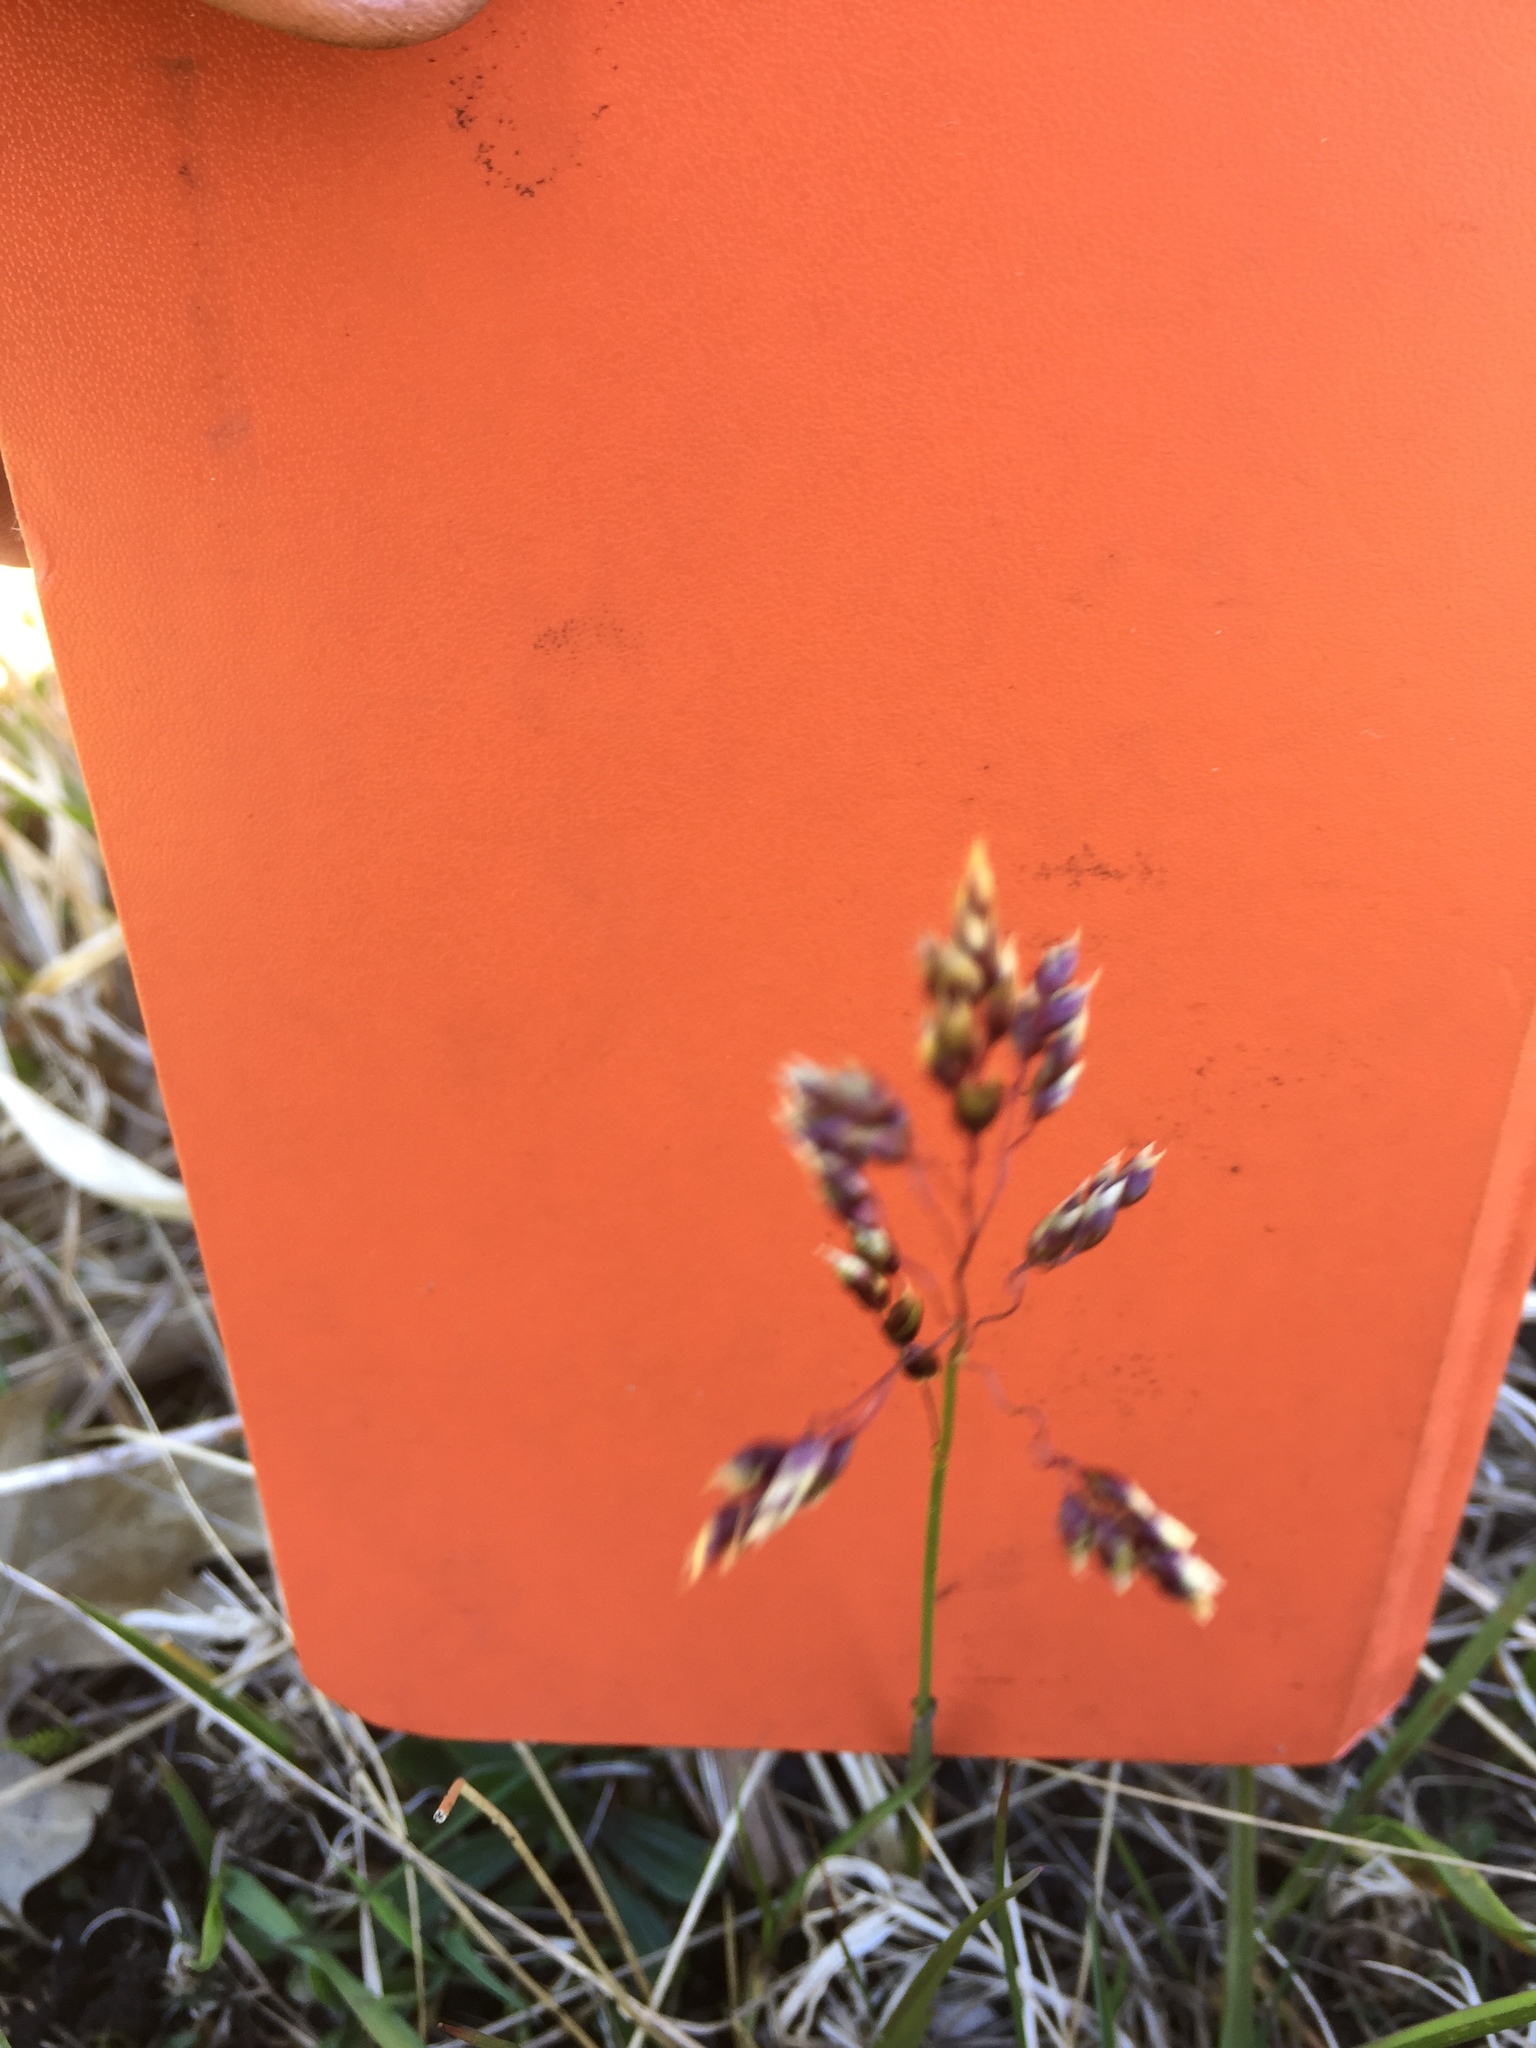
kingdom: Plantae
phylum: Tracheophyta
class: Liliopsida
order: Poales
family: Poaceae
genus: Anthoxanthum
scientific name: Anthoxanthum nitens
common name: Holy grass
